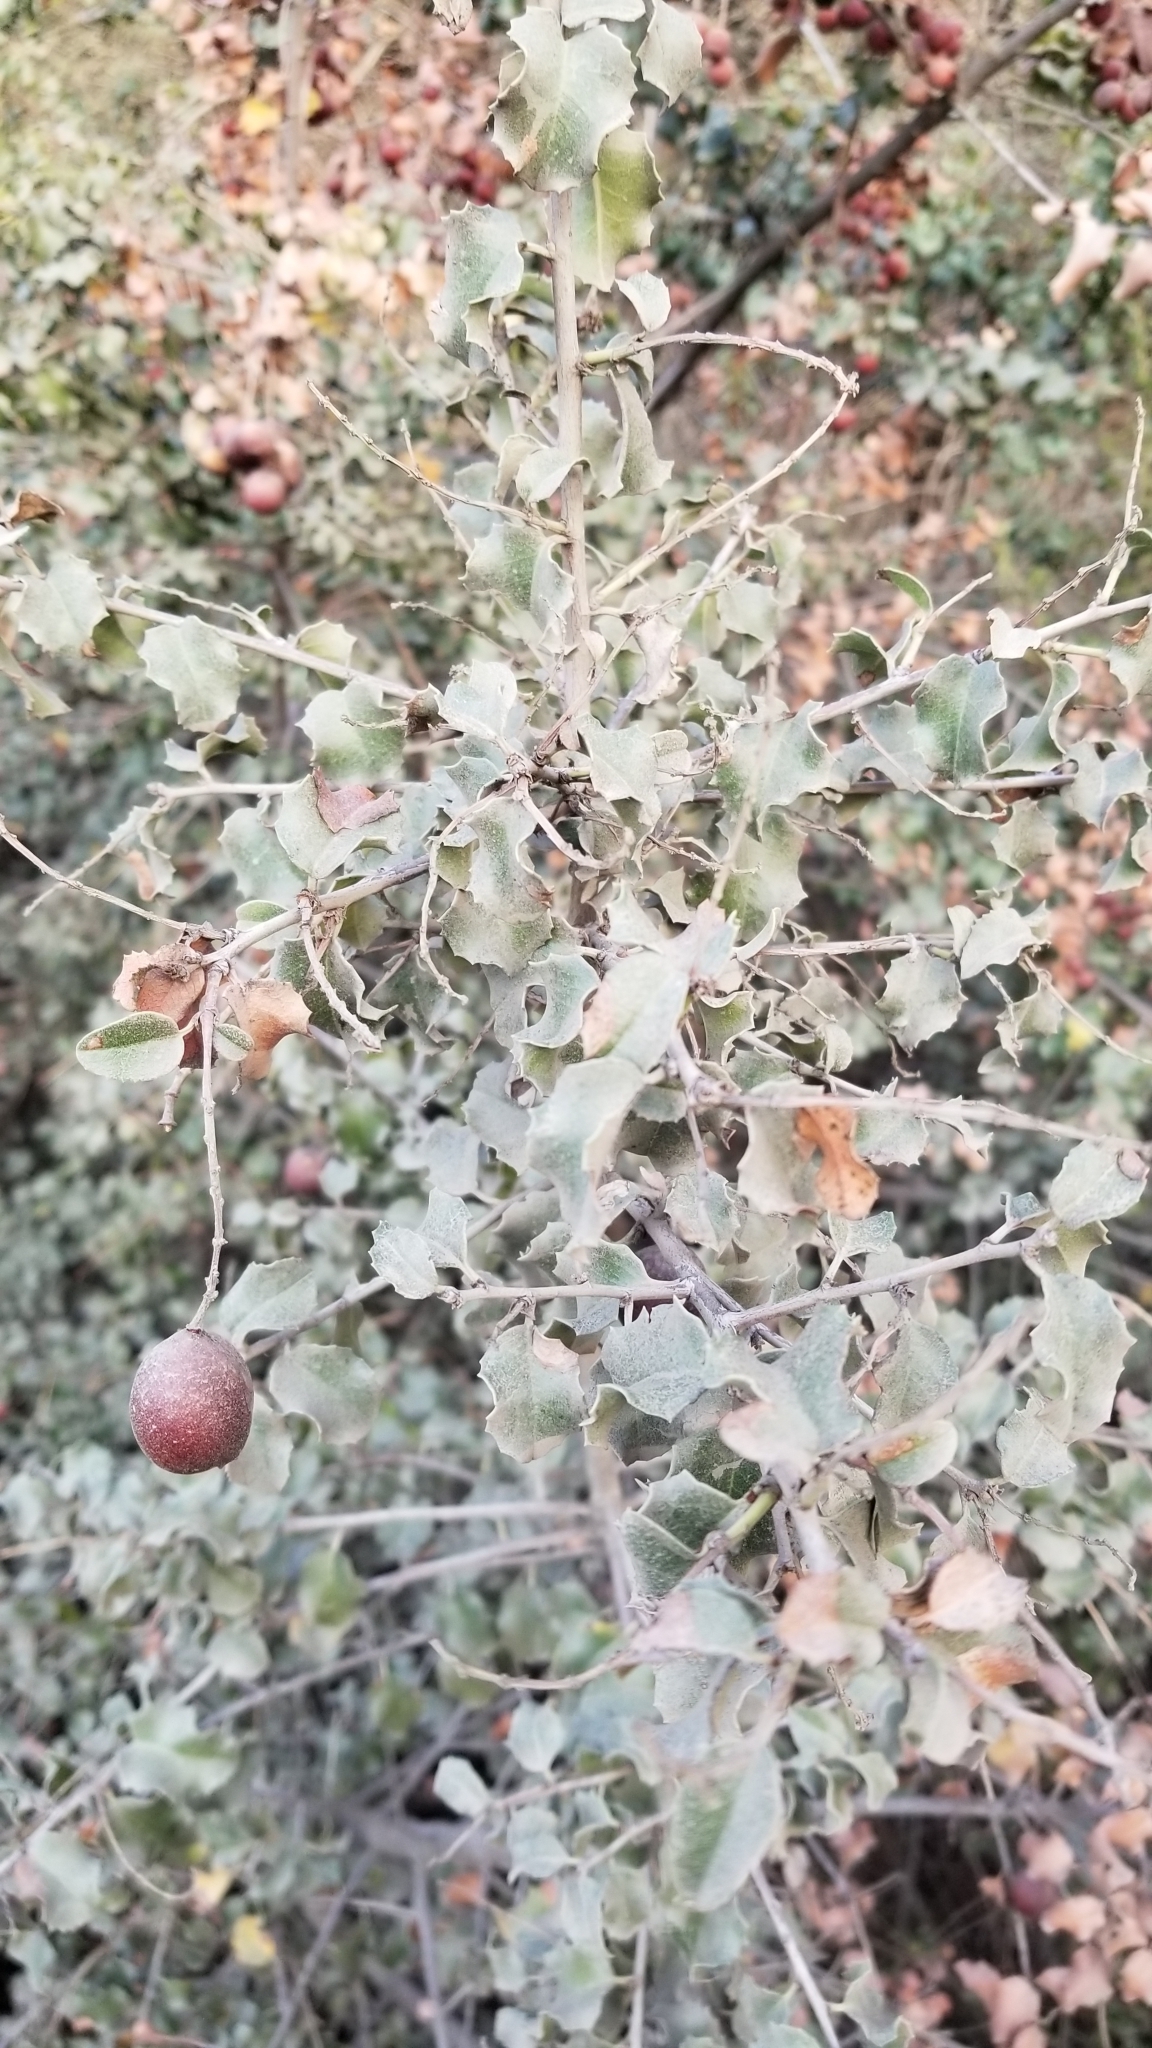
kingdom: Plantae
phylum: Tracheophyta
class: Magnoliopsida
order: Rosales
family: Rosaceae
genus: Prunus
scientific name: Prunus ilicifolia
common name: Hollyleaf cherry
